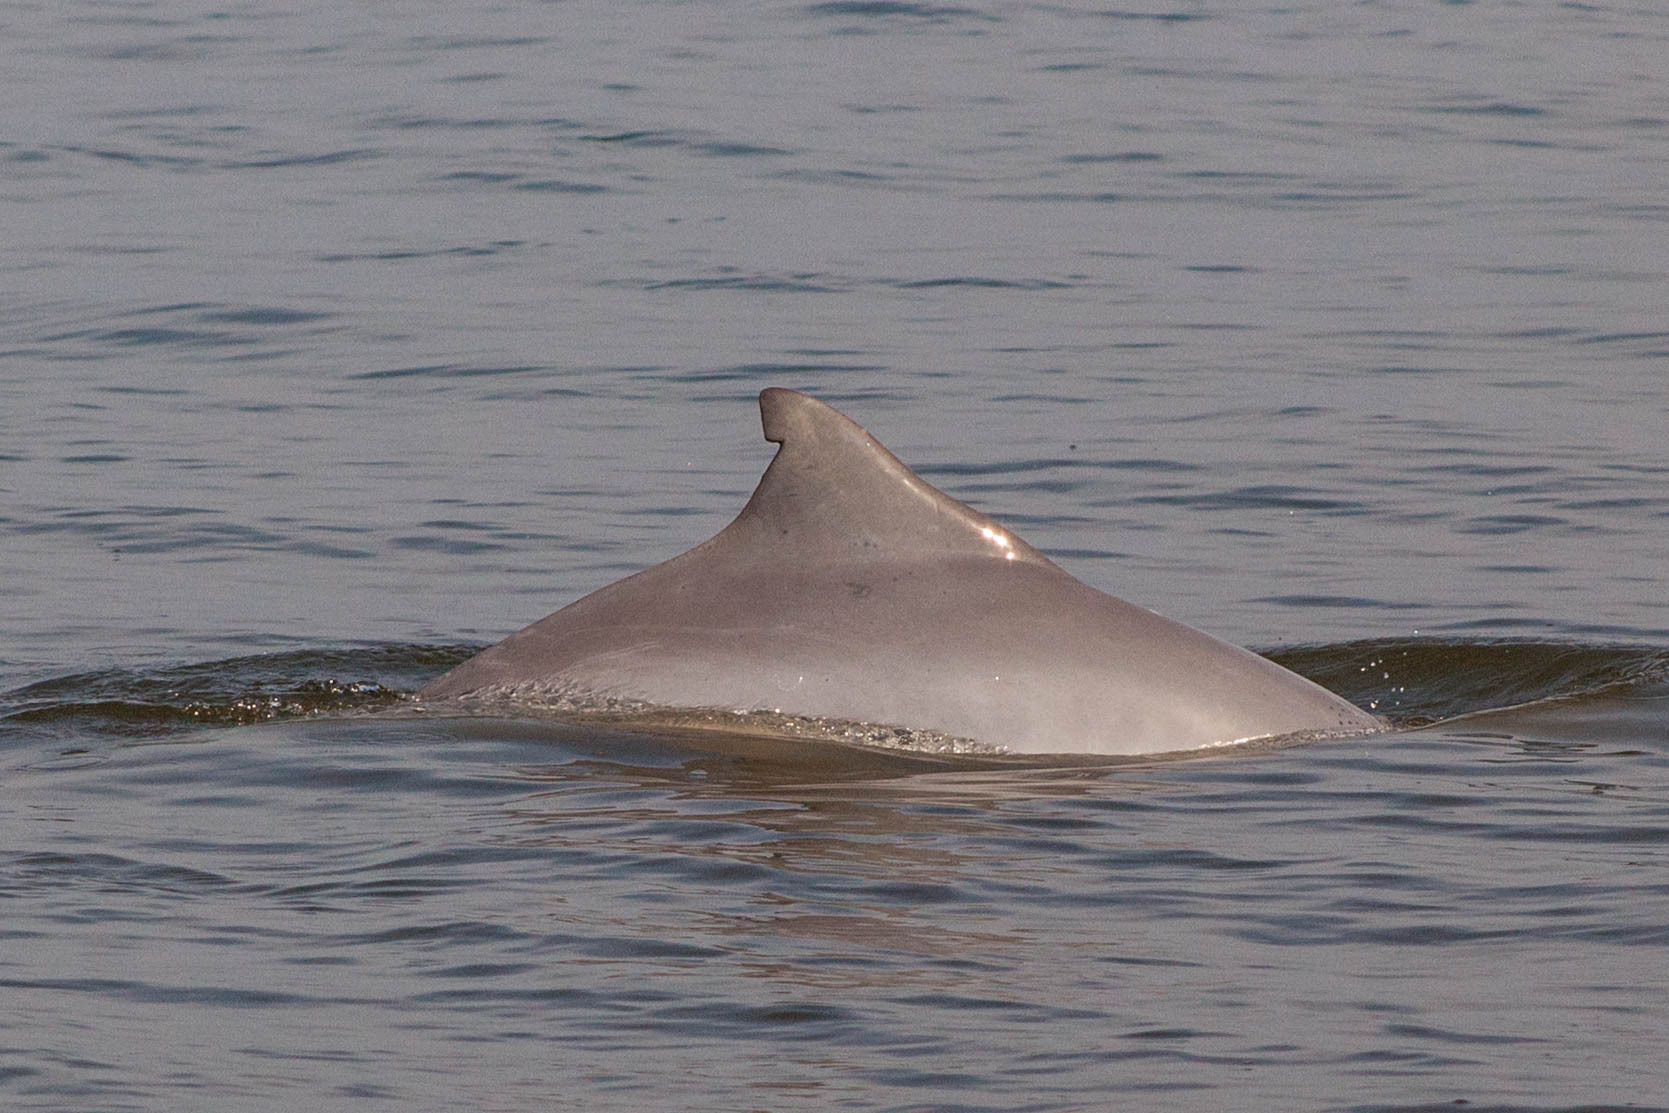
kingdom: Animalia
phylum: Chordata
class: Mammalia
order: Cetacea
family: Delphinidae
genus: Sotalia
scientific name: Sotalia guianensis
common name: Guiana dolphin
